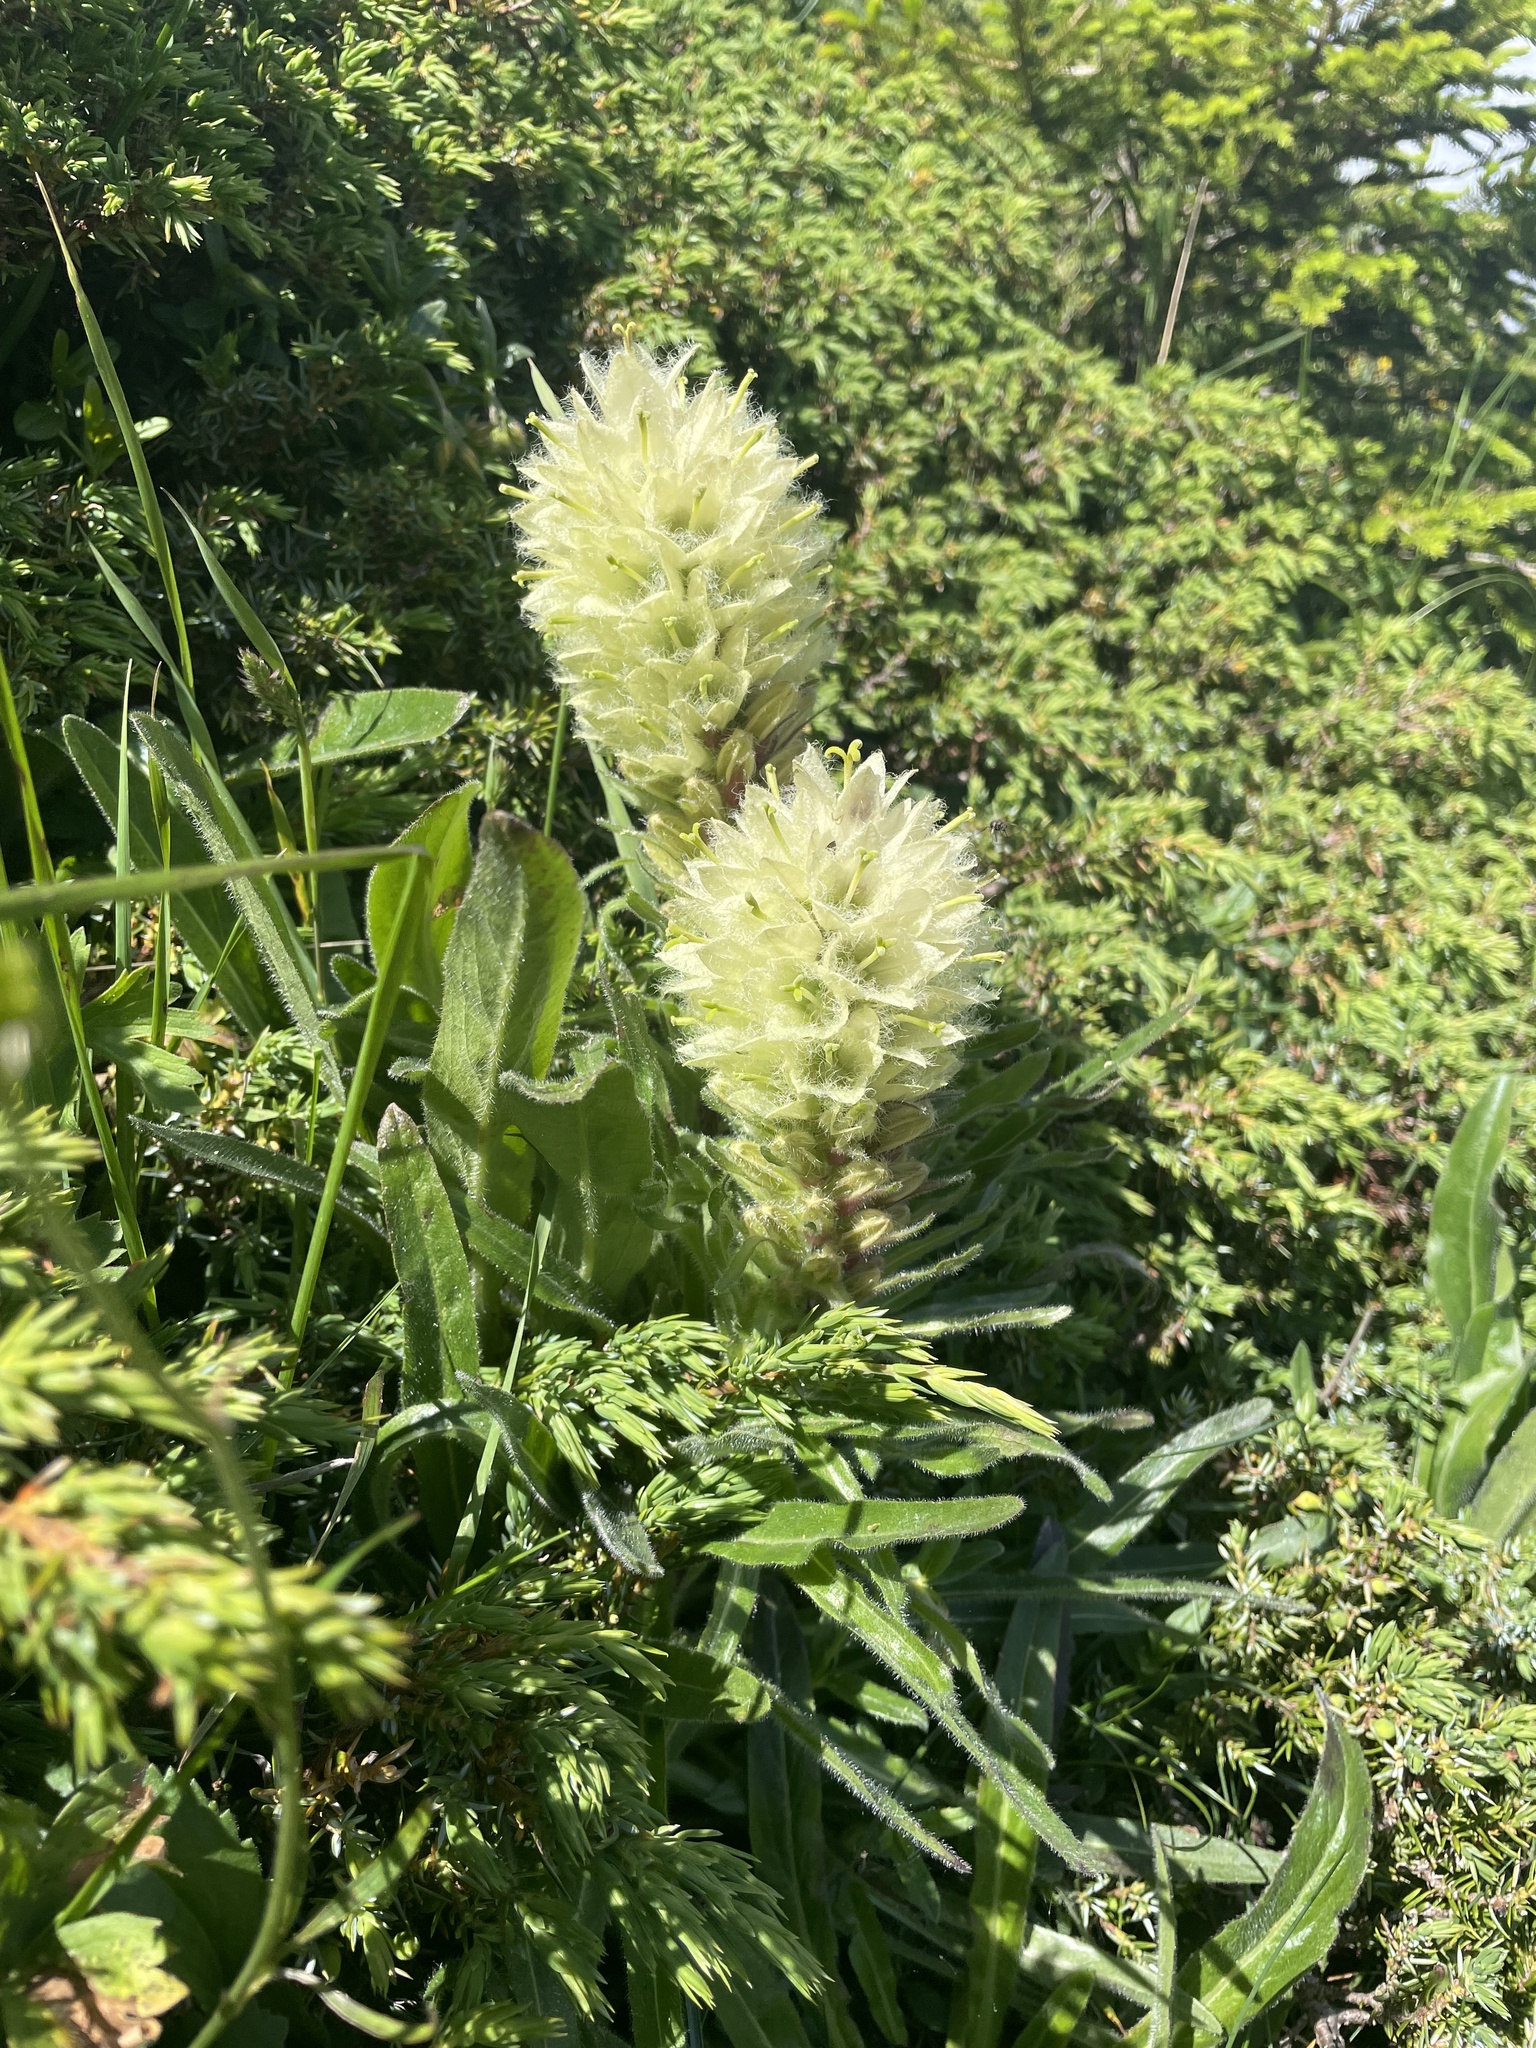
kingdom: Plantae
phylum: Tracheophyta
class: Magnoliopsida
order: Asterales
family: Campanulaceae
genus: Campanula
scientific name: Campanula thyrsoides
